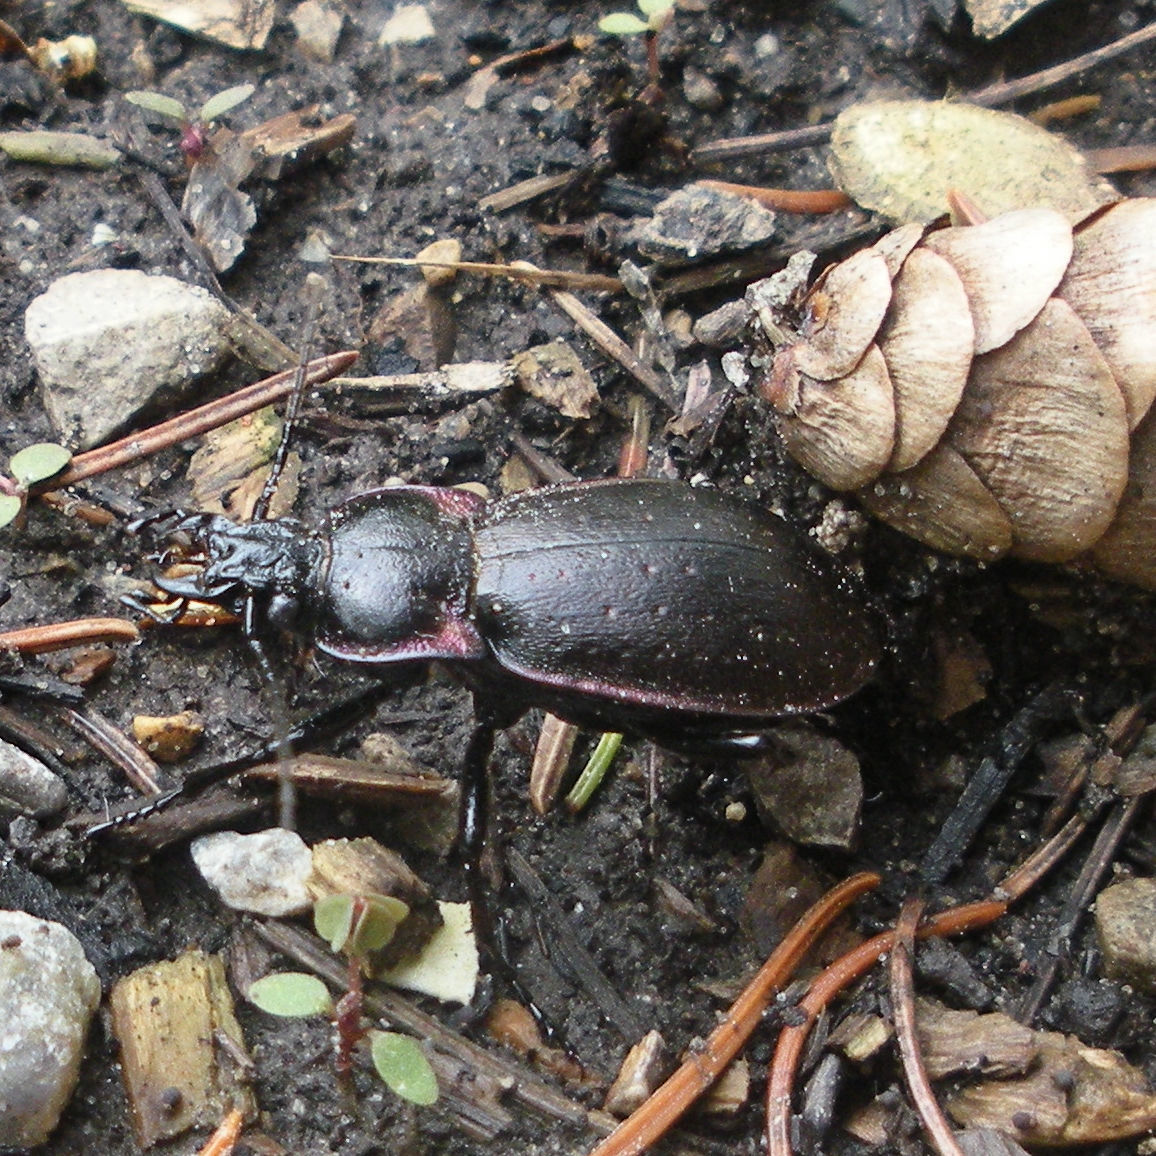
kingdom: Animalia
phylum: Arthropoda
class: Insecta
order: Coleoptera
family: Carabidae
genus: Carabus
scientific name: Carabus nemoralis
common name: European ground beetle
